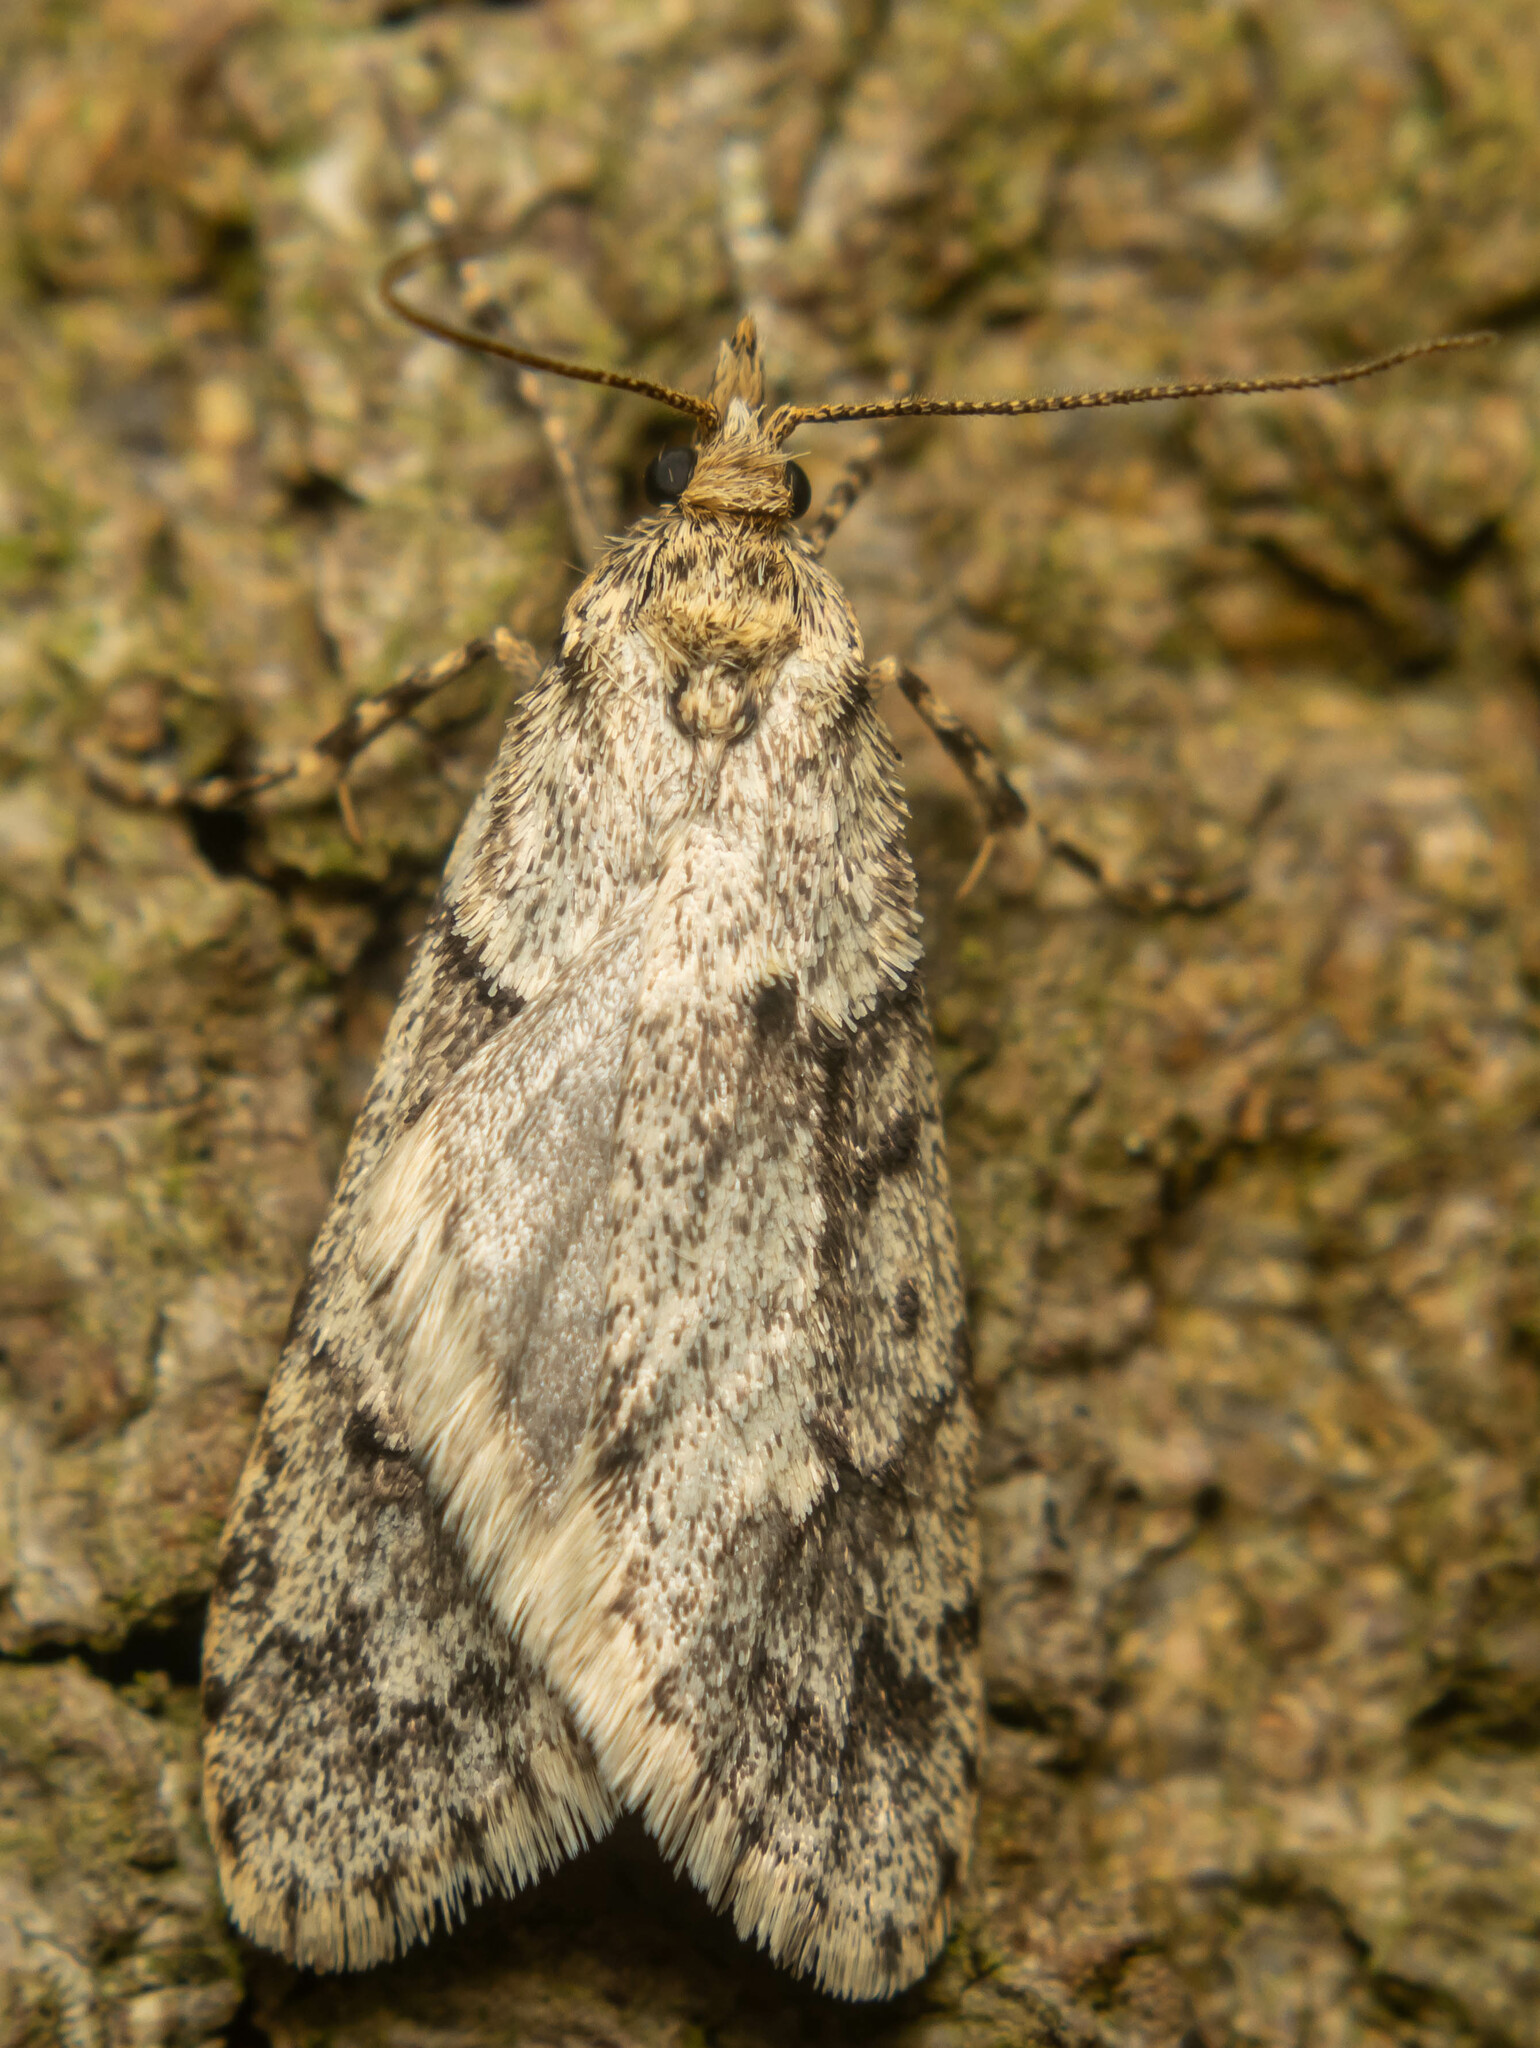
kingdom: Animalia
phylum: Arthropoda
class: Insecta
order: Lepidoptera
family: Lypusidae
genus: Diurnea
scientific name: Diurnea fagella
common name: March tubic
